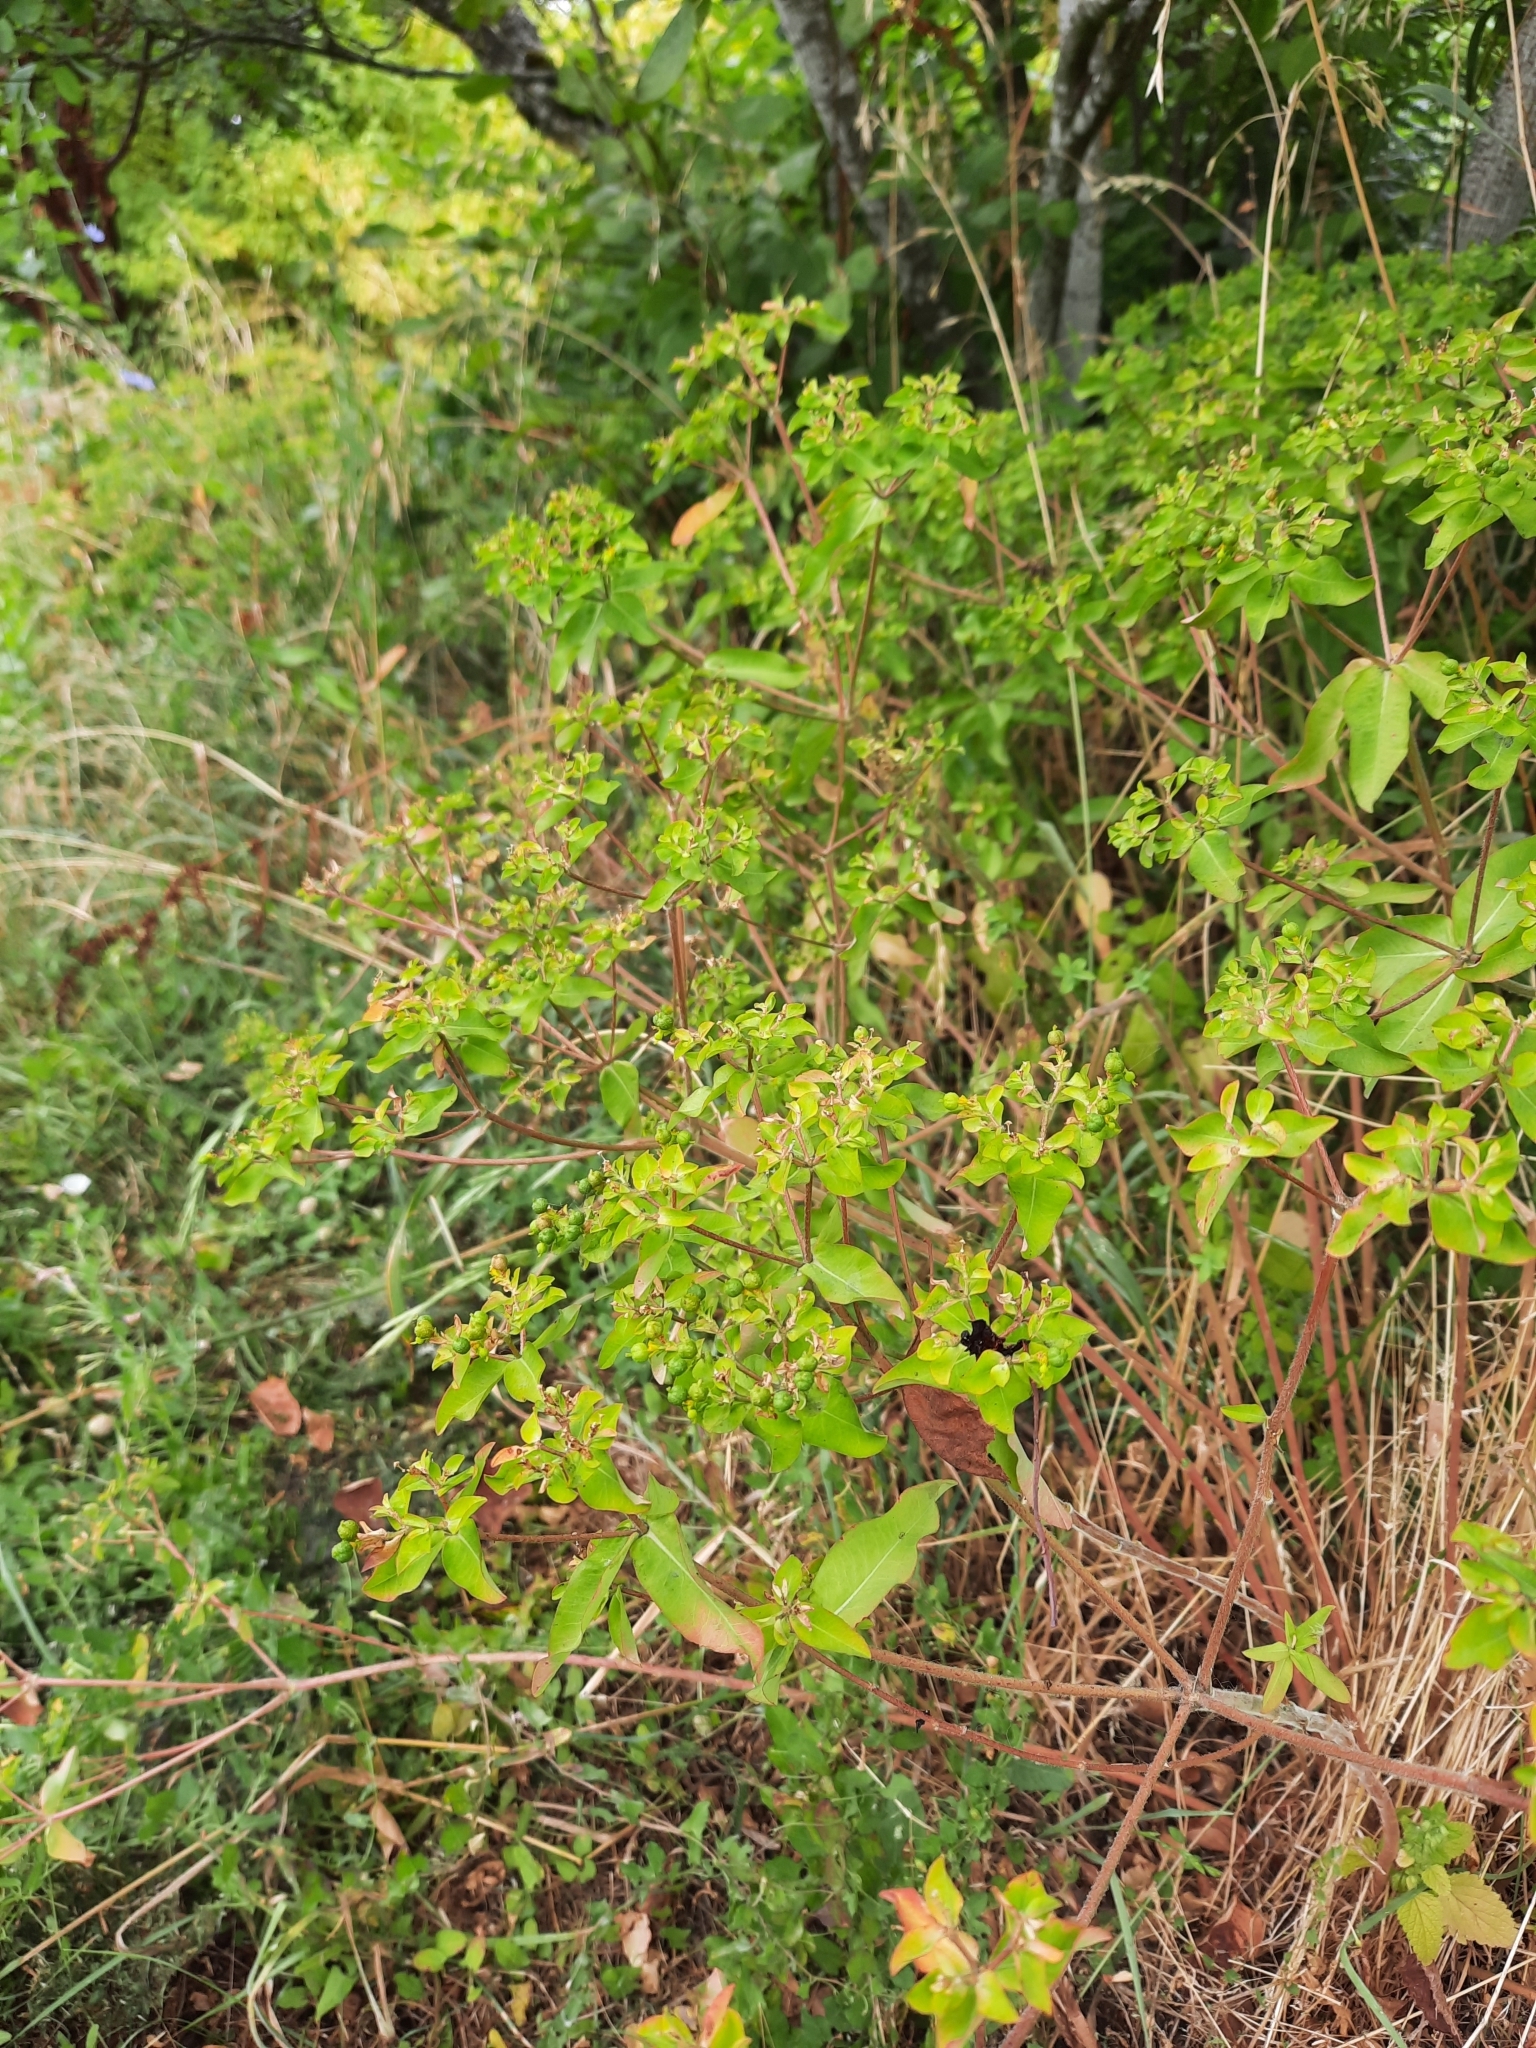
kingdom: Plantae
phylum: Tracheophyta
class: Magnoliopsida
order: Malpighiales
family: Euphorbiaceae
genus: Euphorbia
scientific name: Euphorbia oblongata
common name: Balkan spurge
